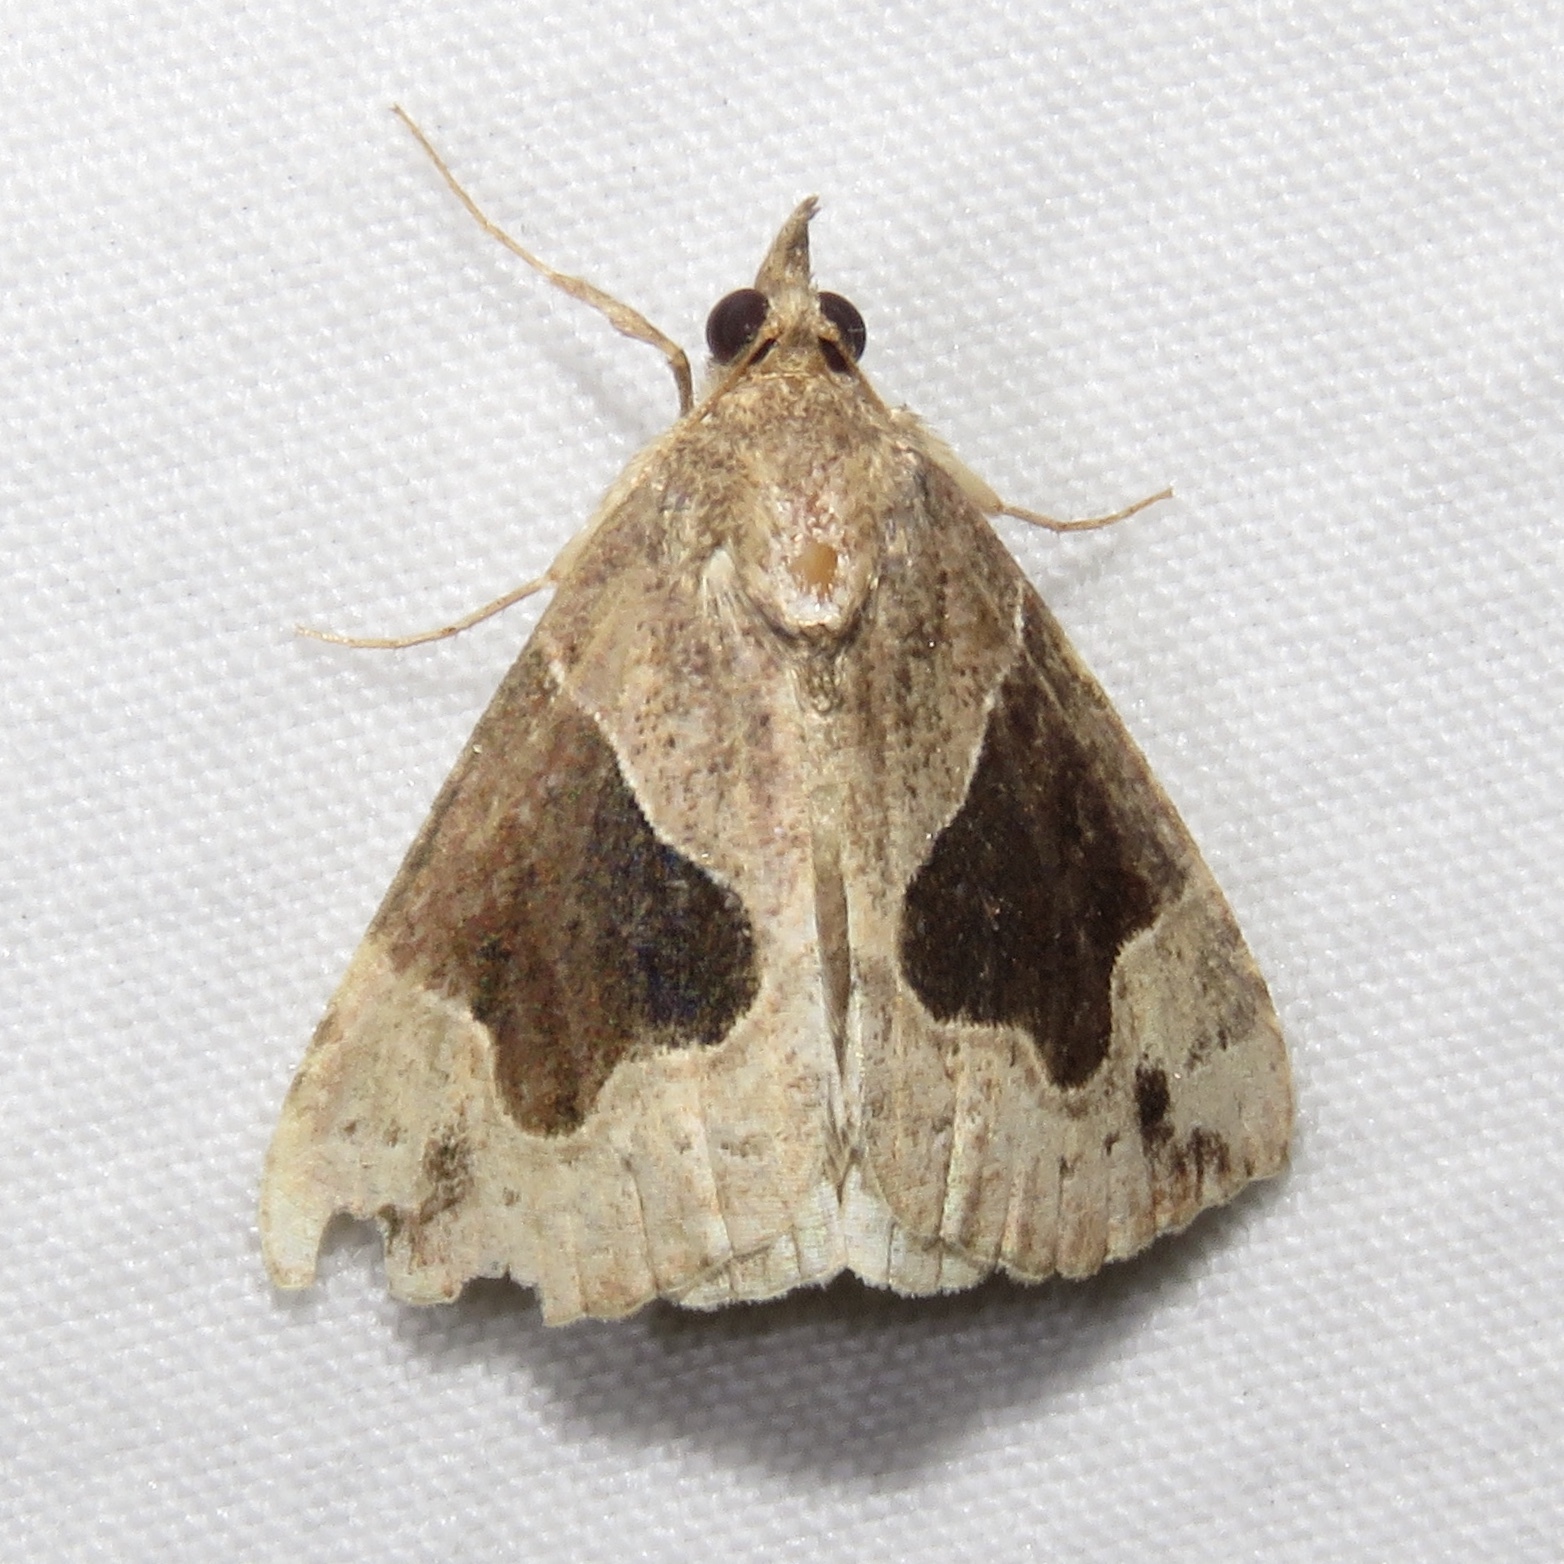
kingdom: Animalia
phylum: Arthropoda
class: Insecta
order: Lepidoptera
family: Erebidae
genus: Hypena
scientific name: Hypena manalis
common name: Flowing-line bomolocha moth
